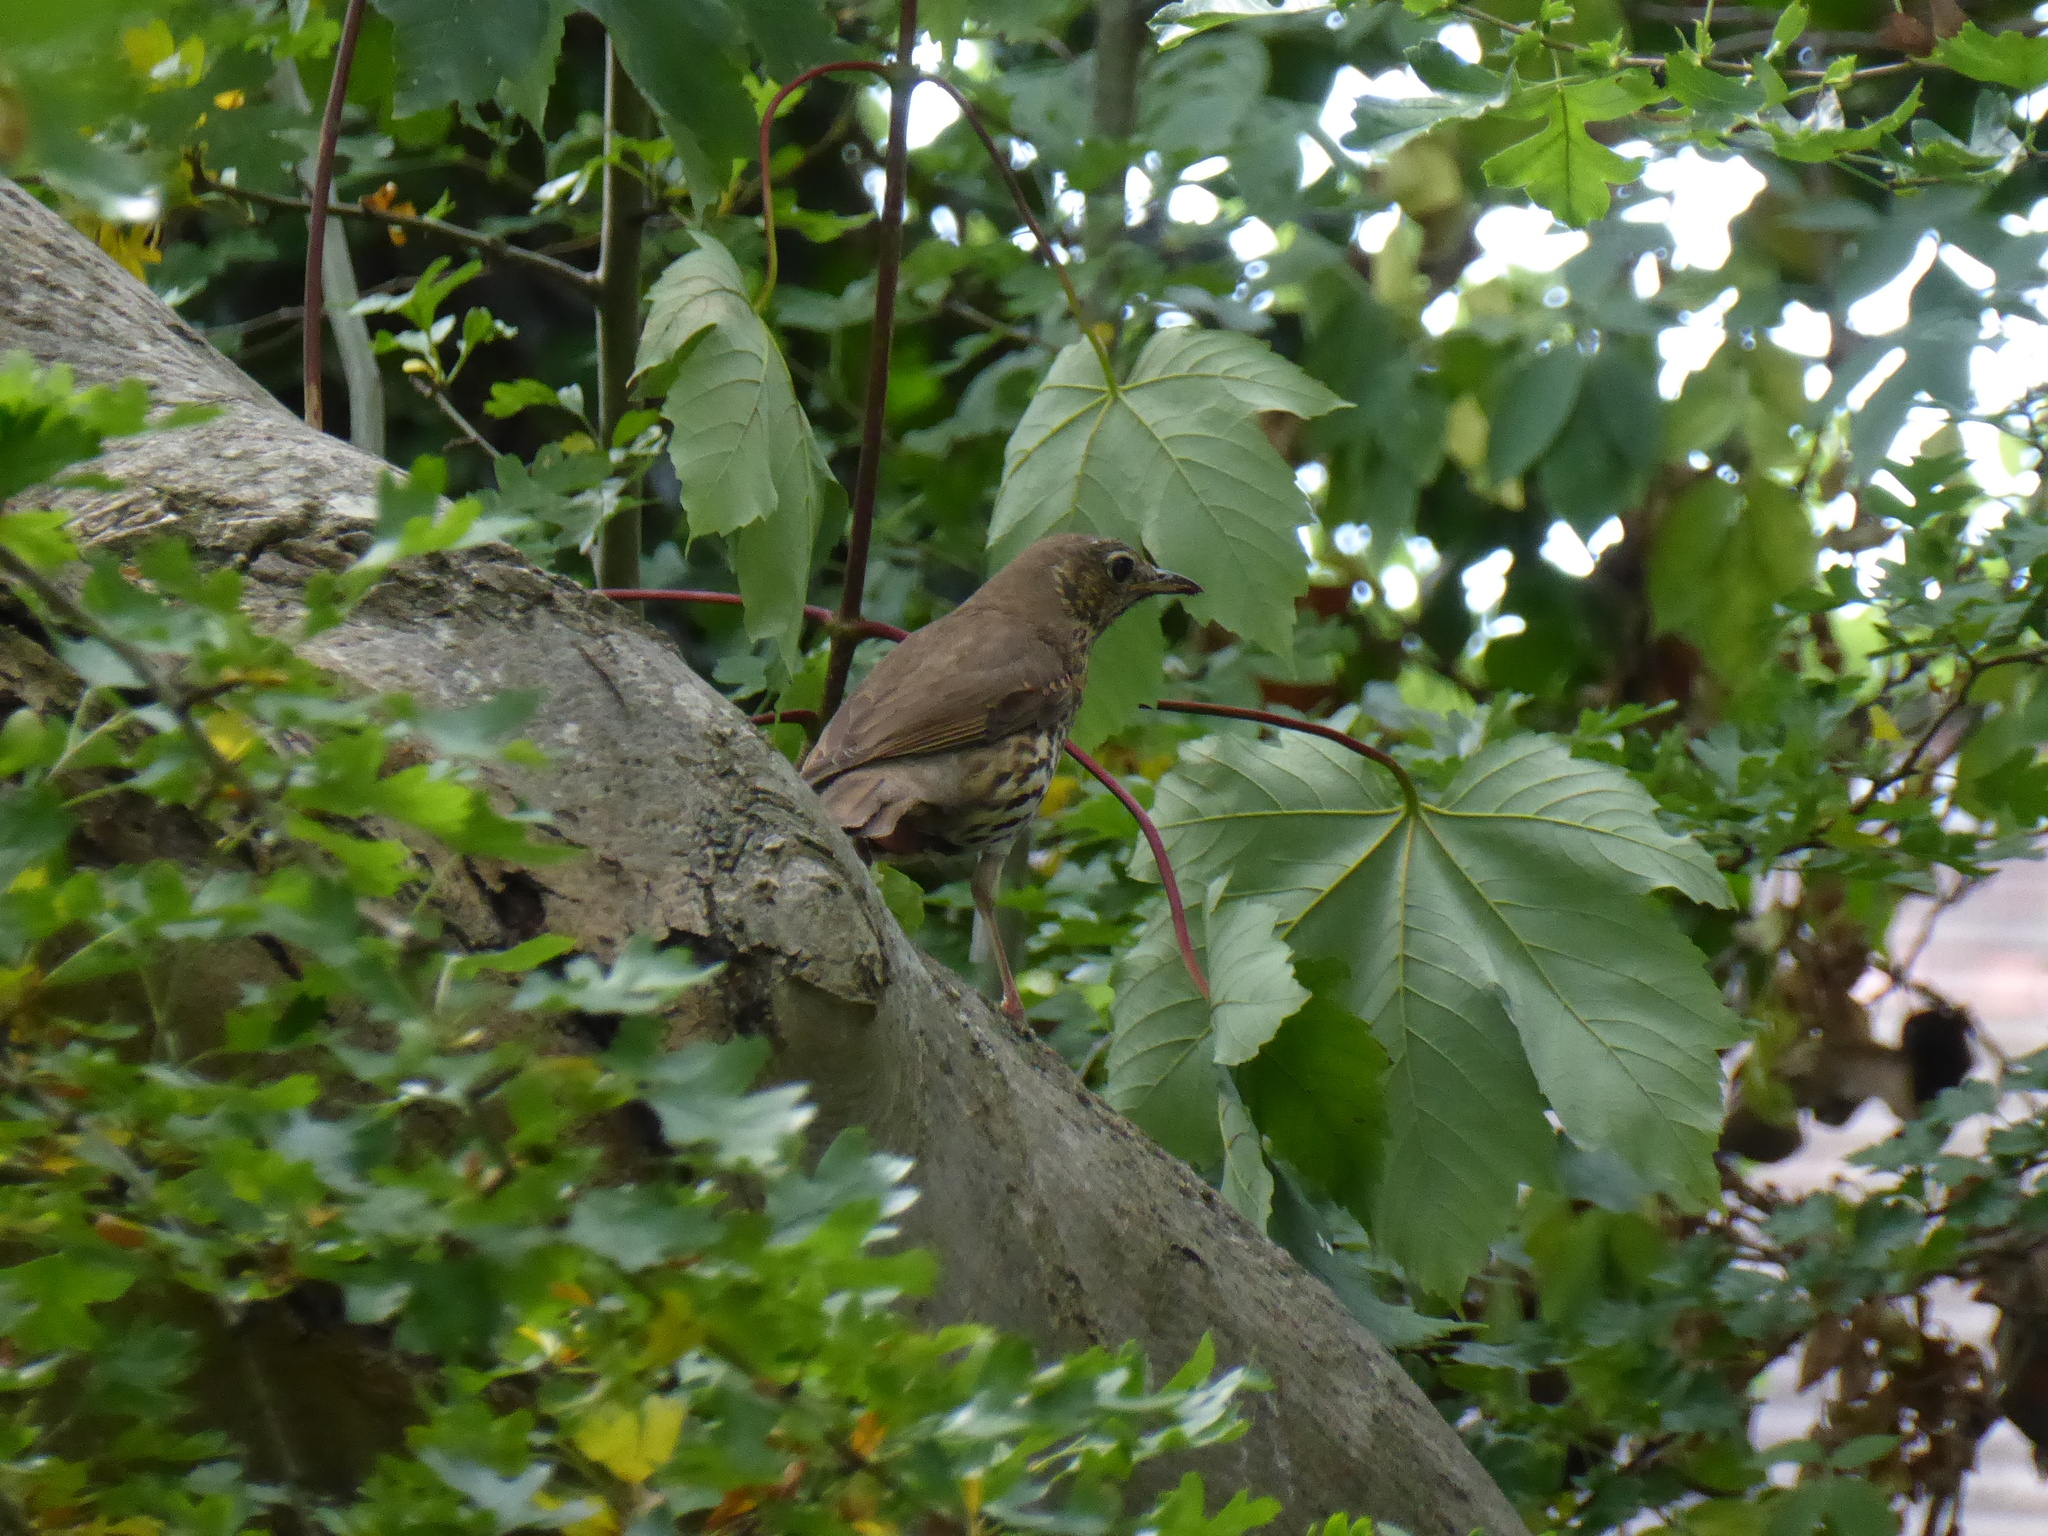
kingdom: Animalia
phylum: Chordata
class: Aves
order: Passeriformes
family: Turdidae
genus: Turdus
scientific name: Turdus philomelos
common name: Song thrush
